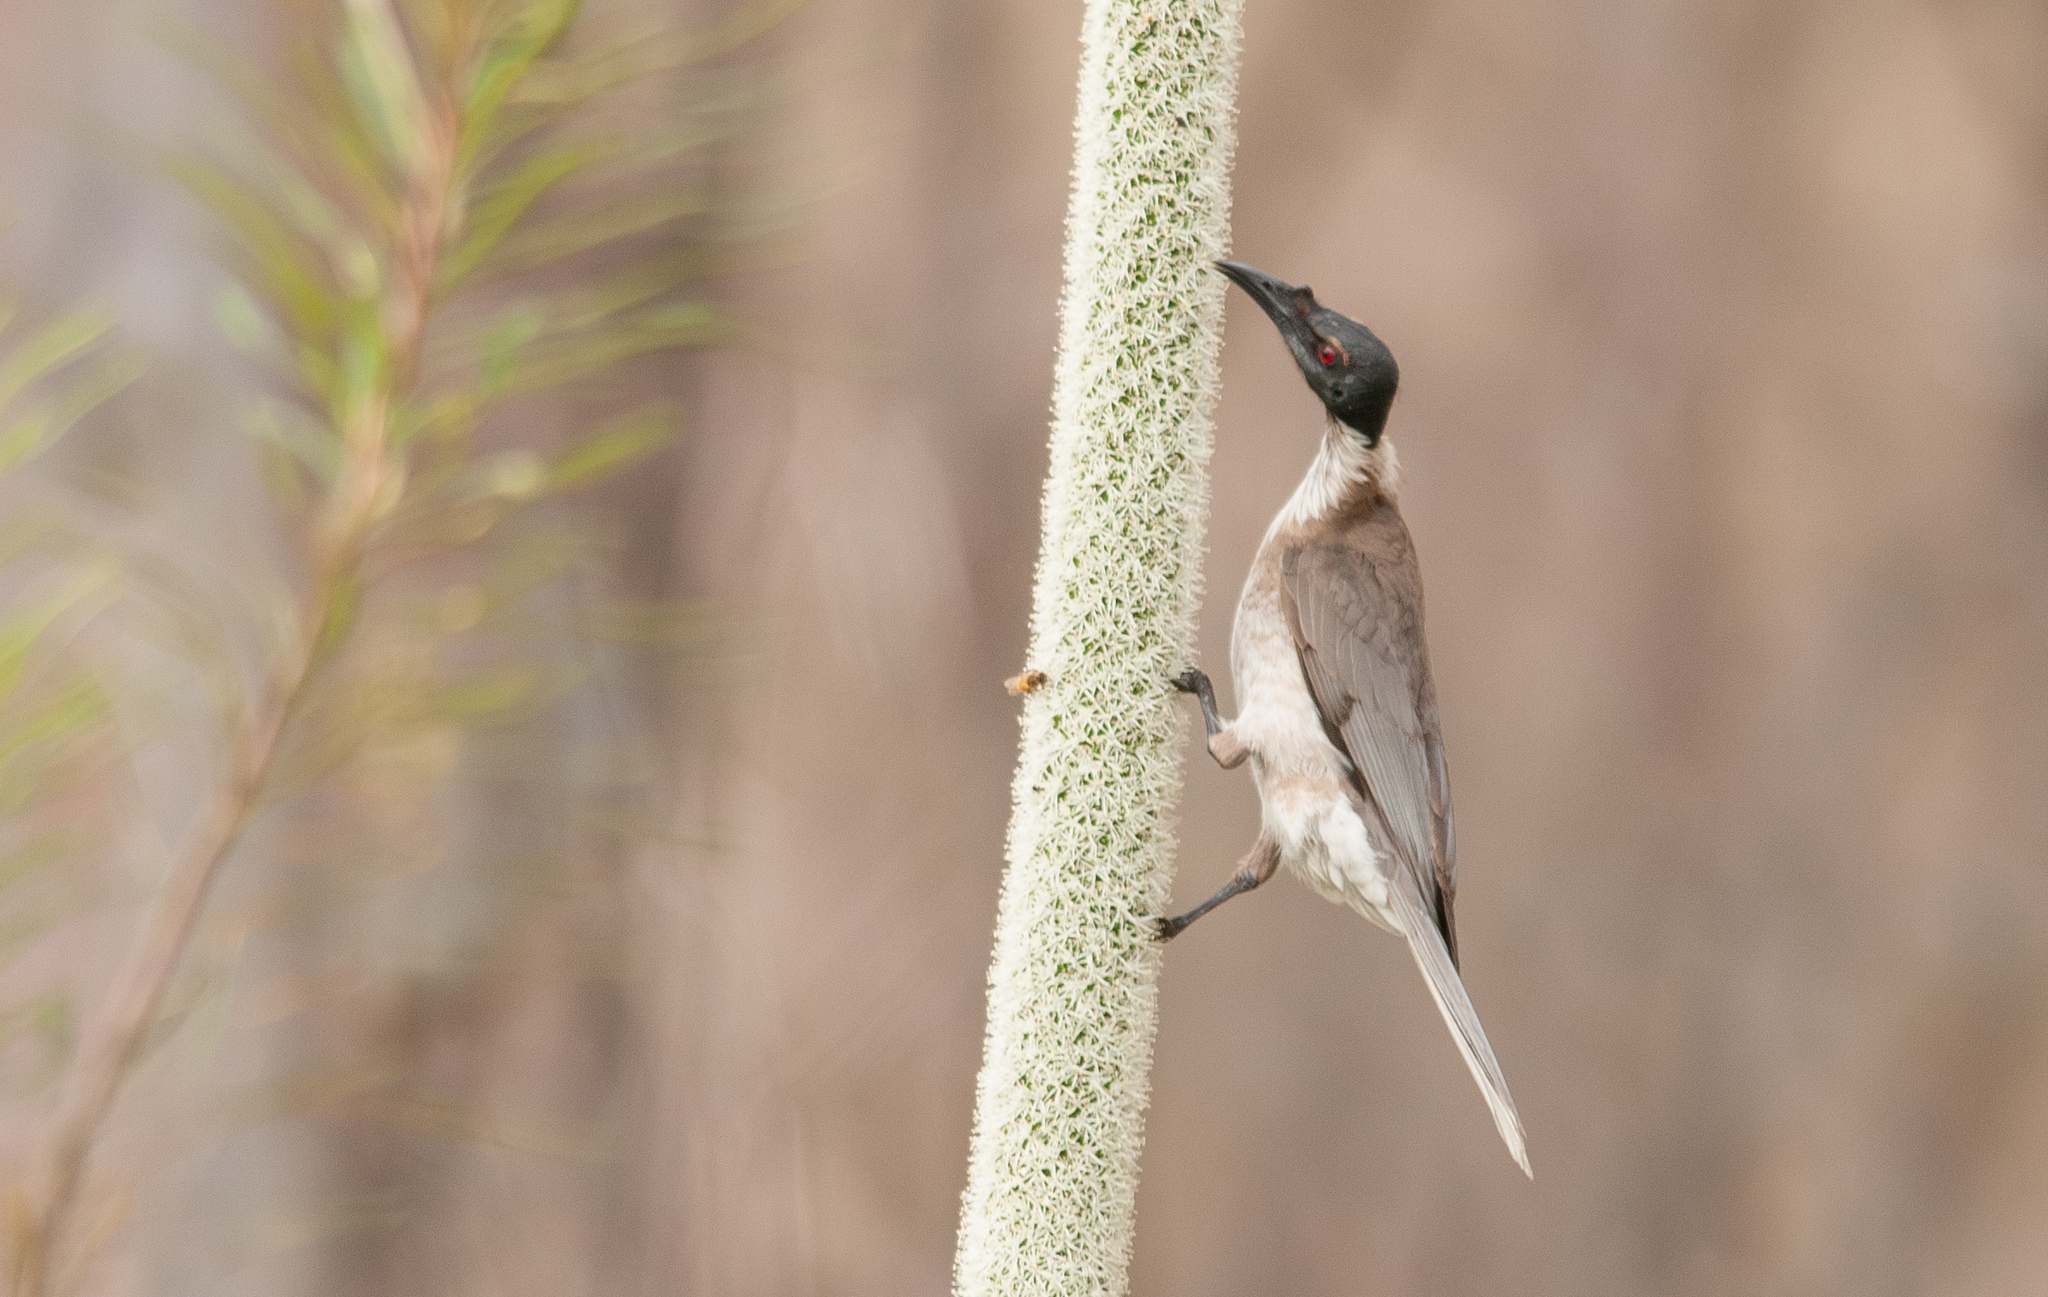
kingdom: Animalia
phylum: Chordata
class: Aves
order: Passeriformes
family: Meliphagidae
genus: Philemon
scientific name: Philemon corniculatus
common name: Noisy friarbird
